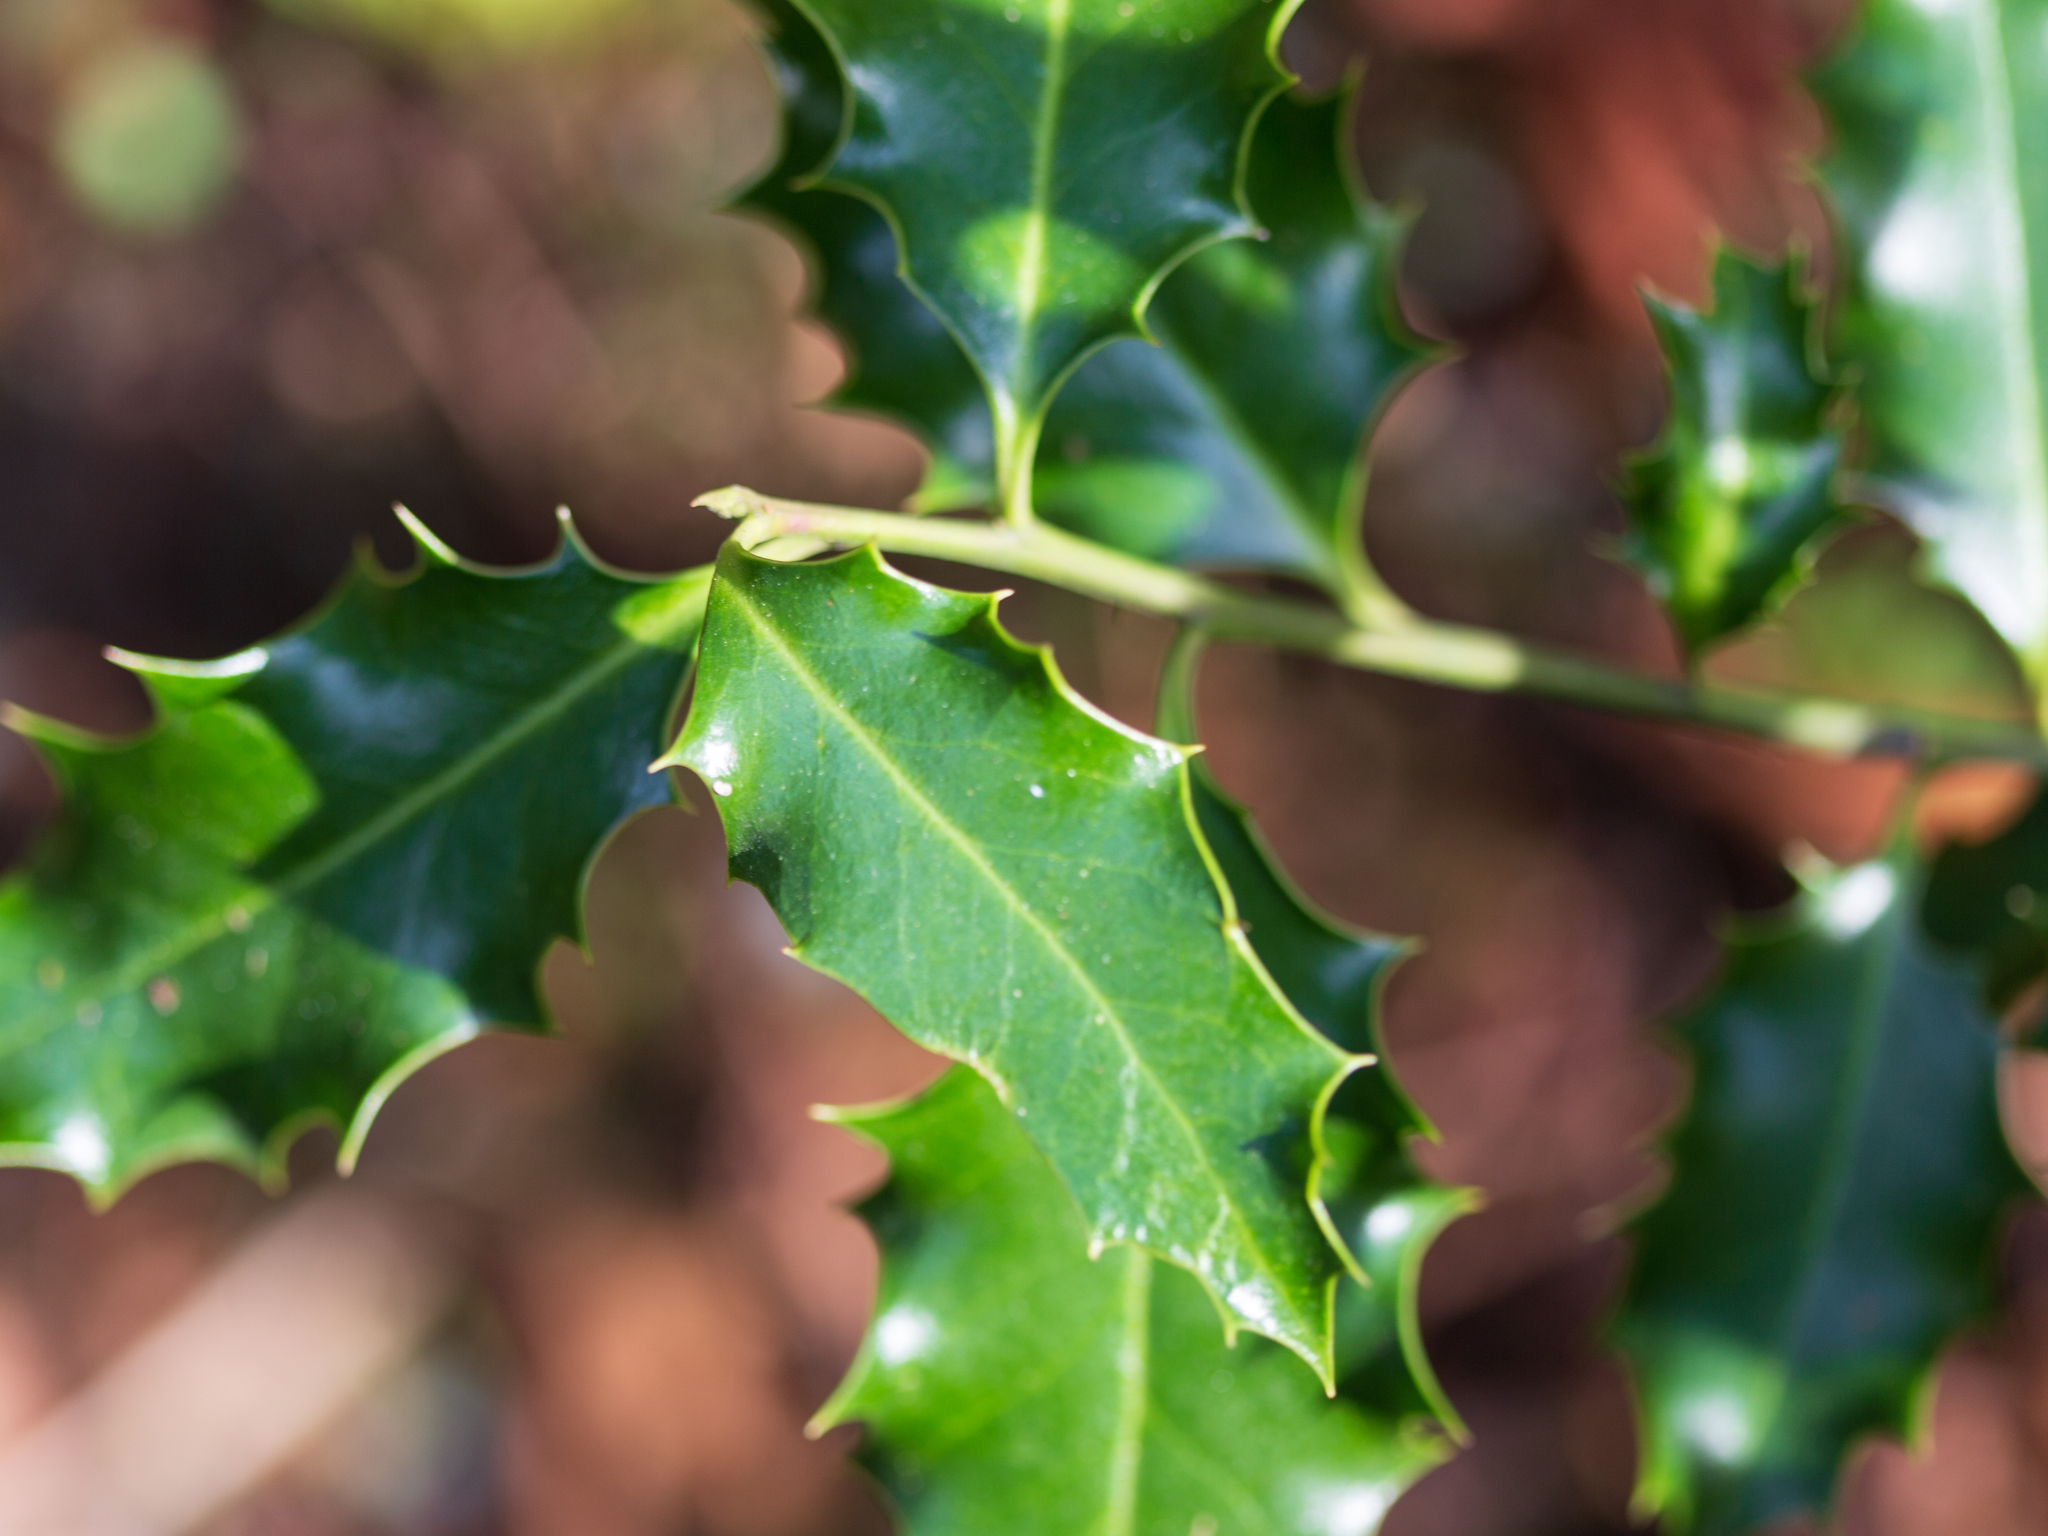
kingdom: Plantae
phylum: Tracheophyta
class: Magnoliopsida
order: Aquifoliales
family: Aquifoliaceae
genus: Ilex
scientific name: Ilex aquifolium
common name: English holly
